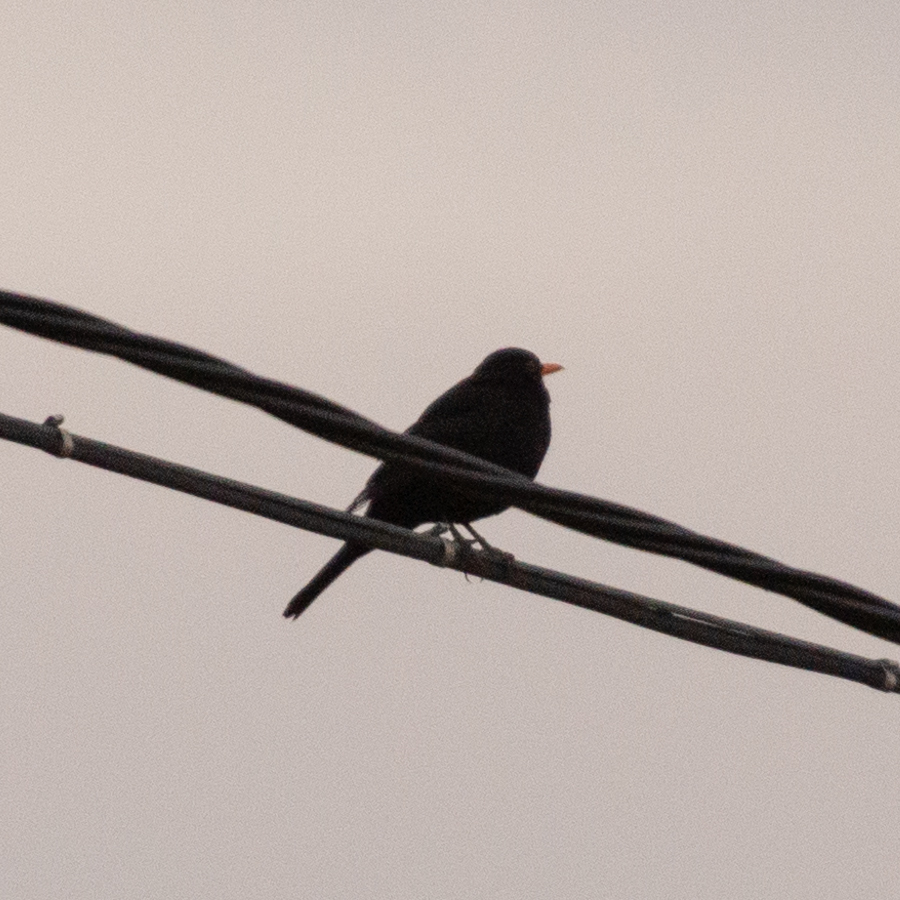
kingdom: Animalia
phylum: Chordata
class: Aves
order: Passeriformes
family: Turdidae
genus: Turdus
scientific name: Turdus merula
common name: Common blackbird
